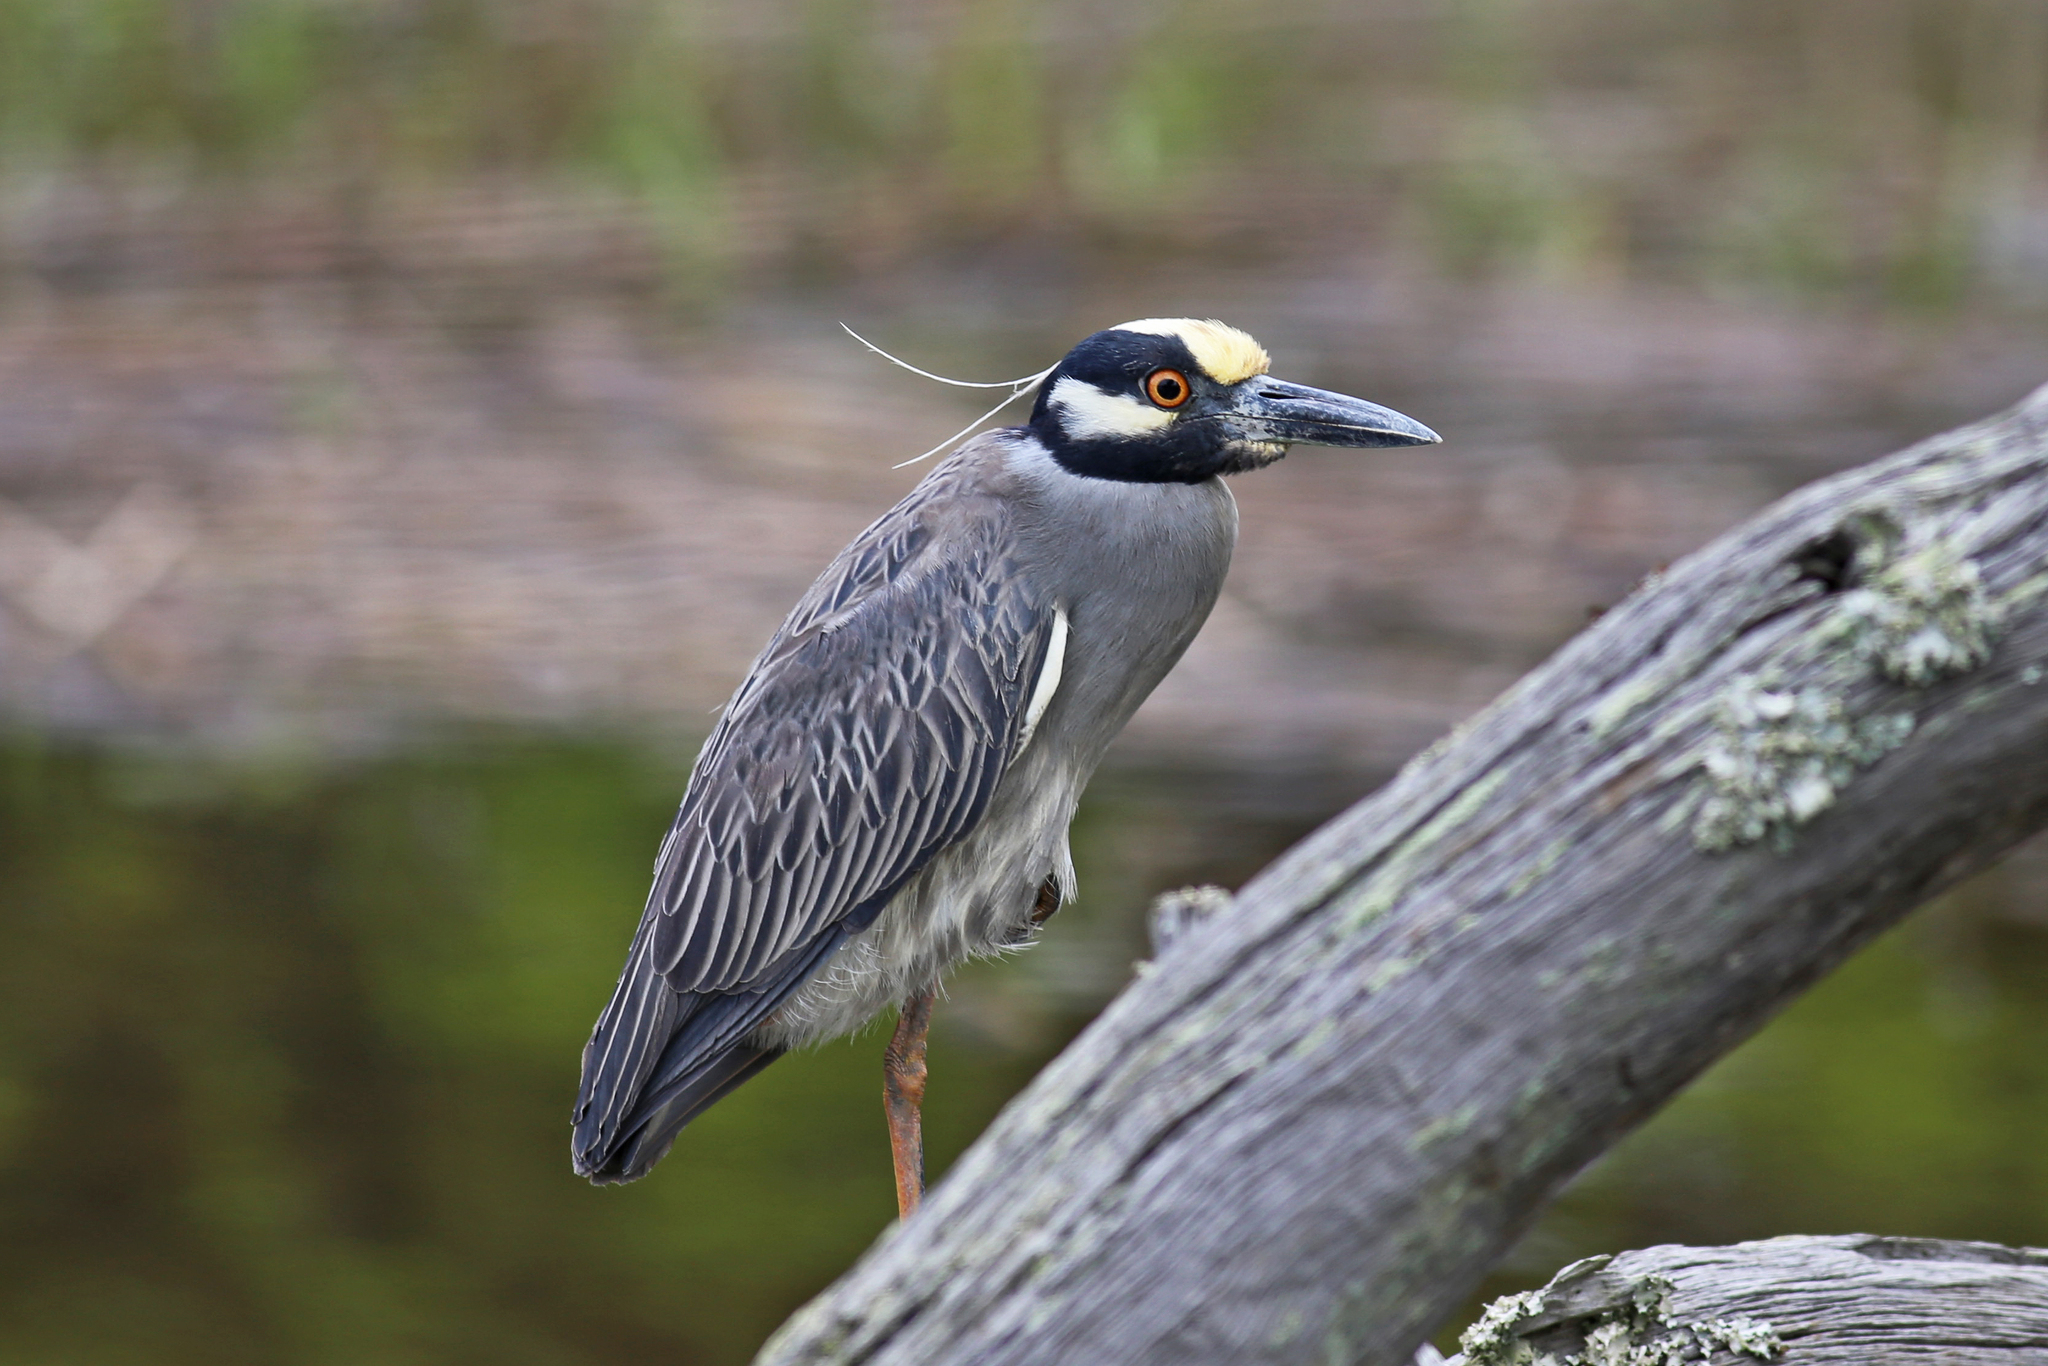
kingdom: Animalia
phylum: Chordata
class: Aves
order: Pelecaniformes
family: Ardeidae
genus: Nyctanassa
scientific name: Nyctanassa violacea
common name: Yellow-crowned night heron
